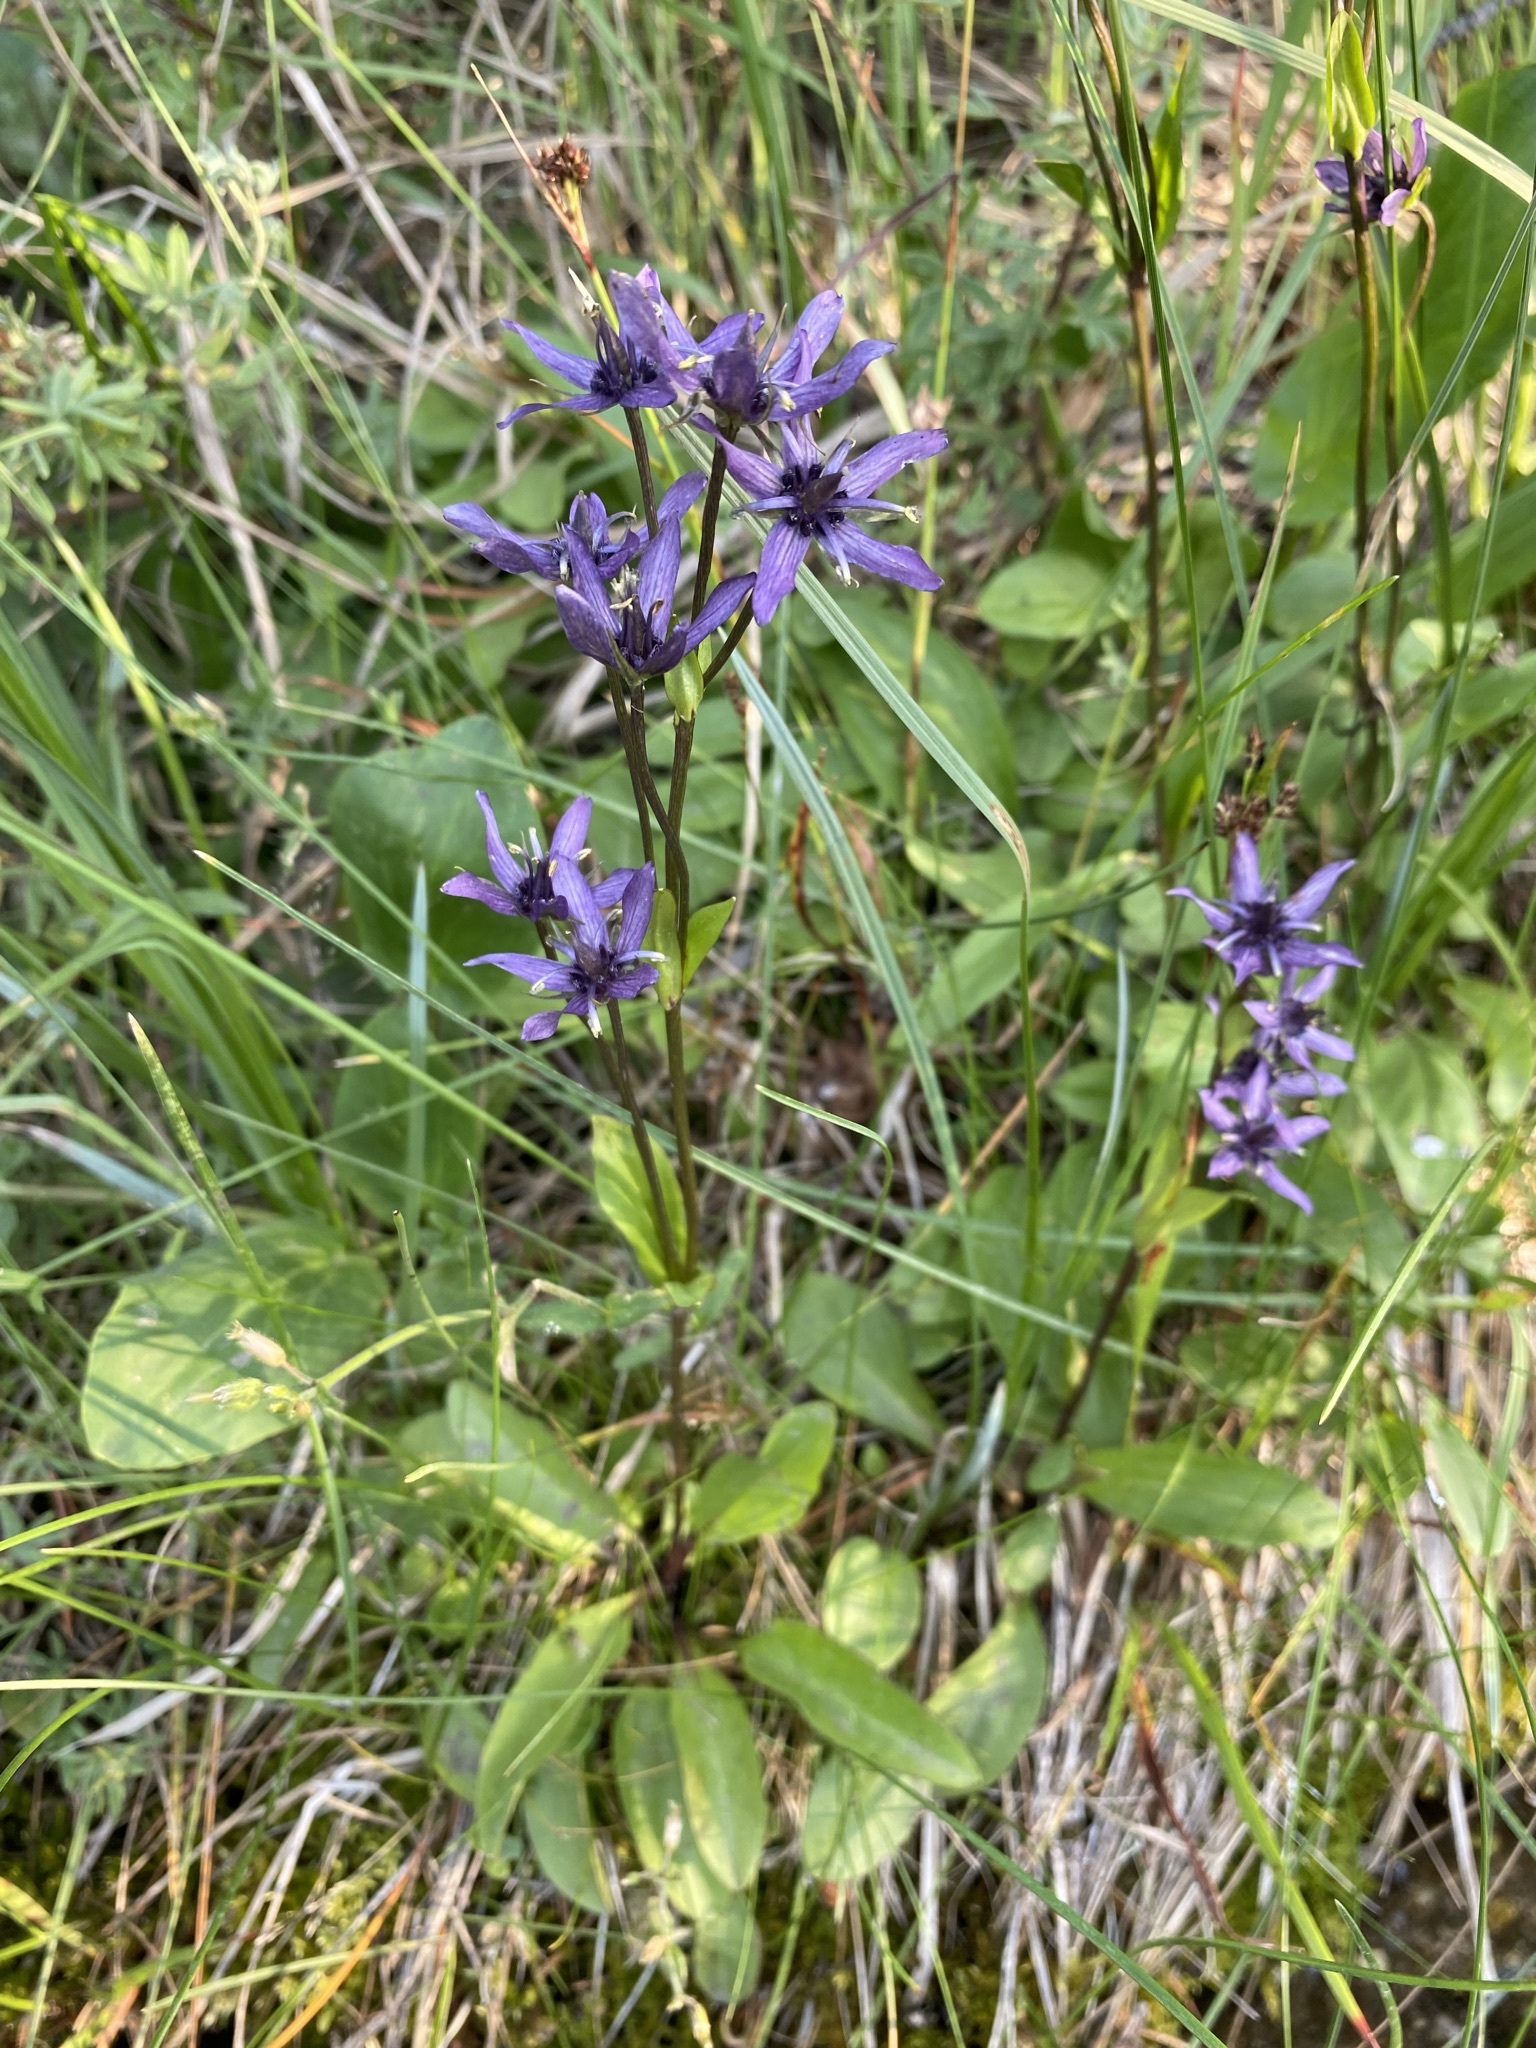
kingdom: Plantae
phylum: Tracheophyta
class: Magnoliopsida
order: Gentianales
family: Gentianaceae
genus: Swertia
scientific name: Swertia perennis
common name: Alpine bog swertia
